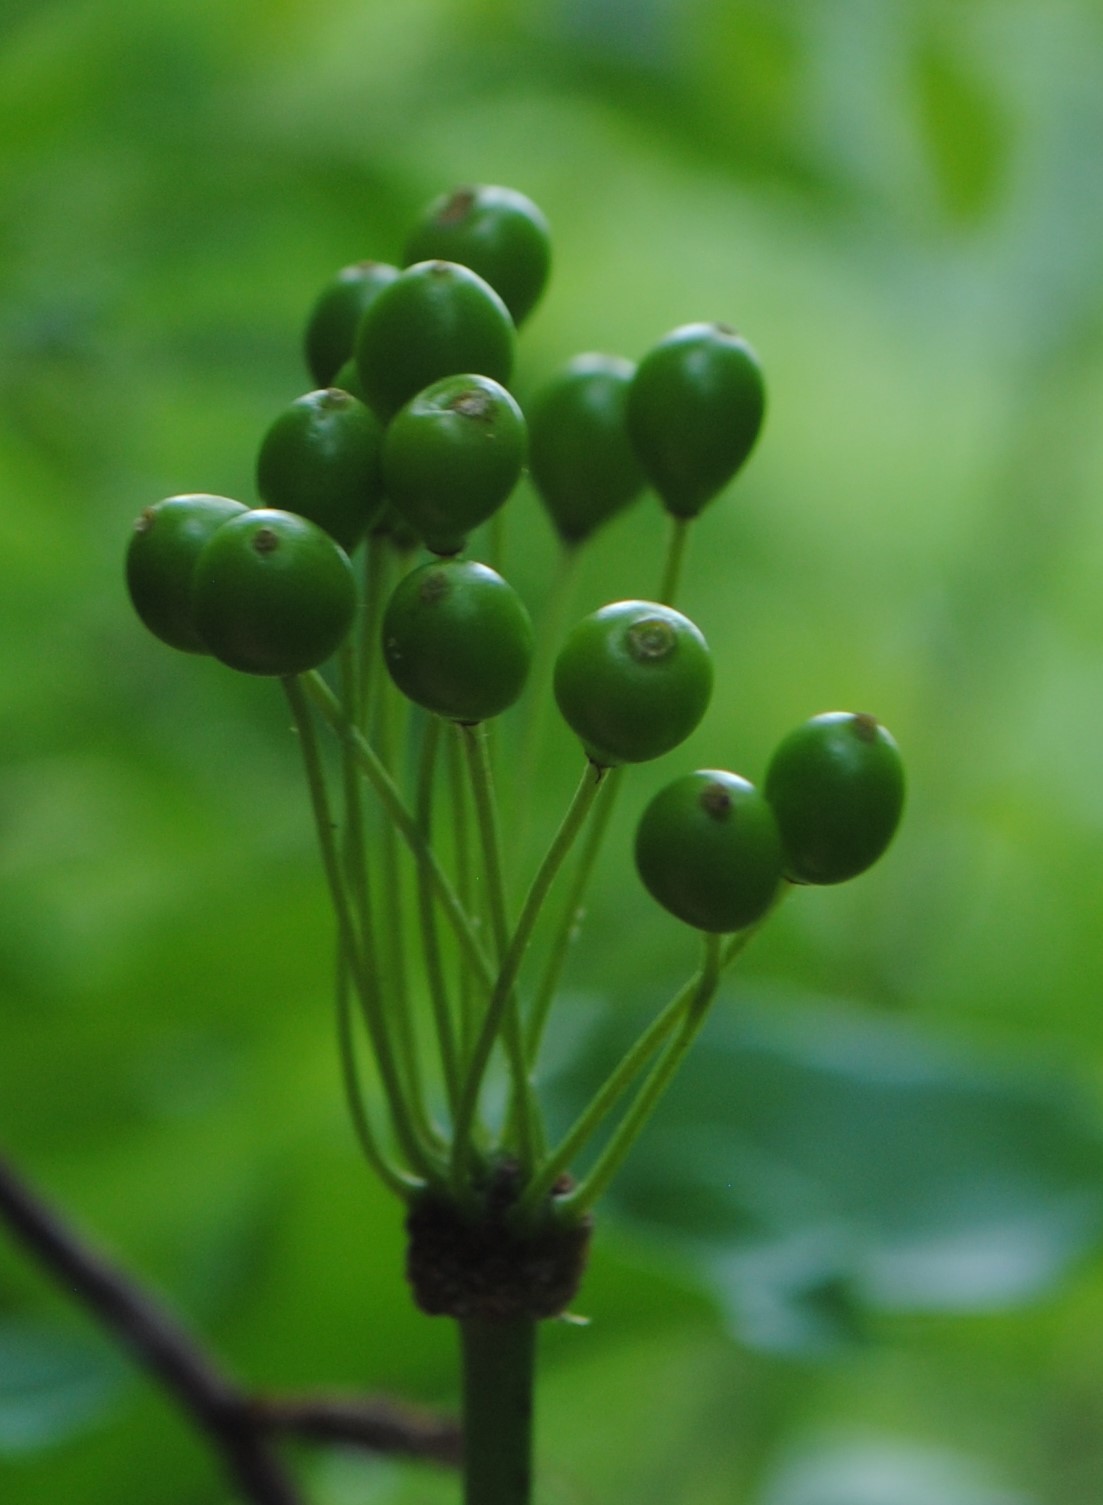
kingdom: Plantae
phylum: Tracheophyta
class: Liliopsida
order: Liliales
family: Smilacaceae
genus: Smilax
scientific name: Smilax pulverulenta
